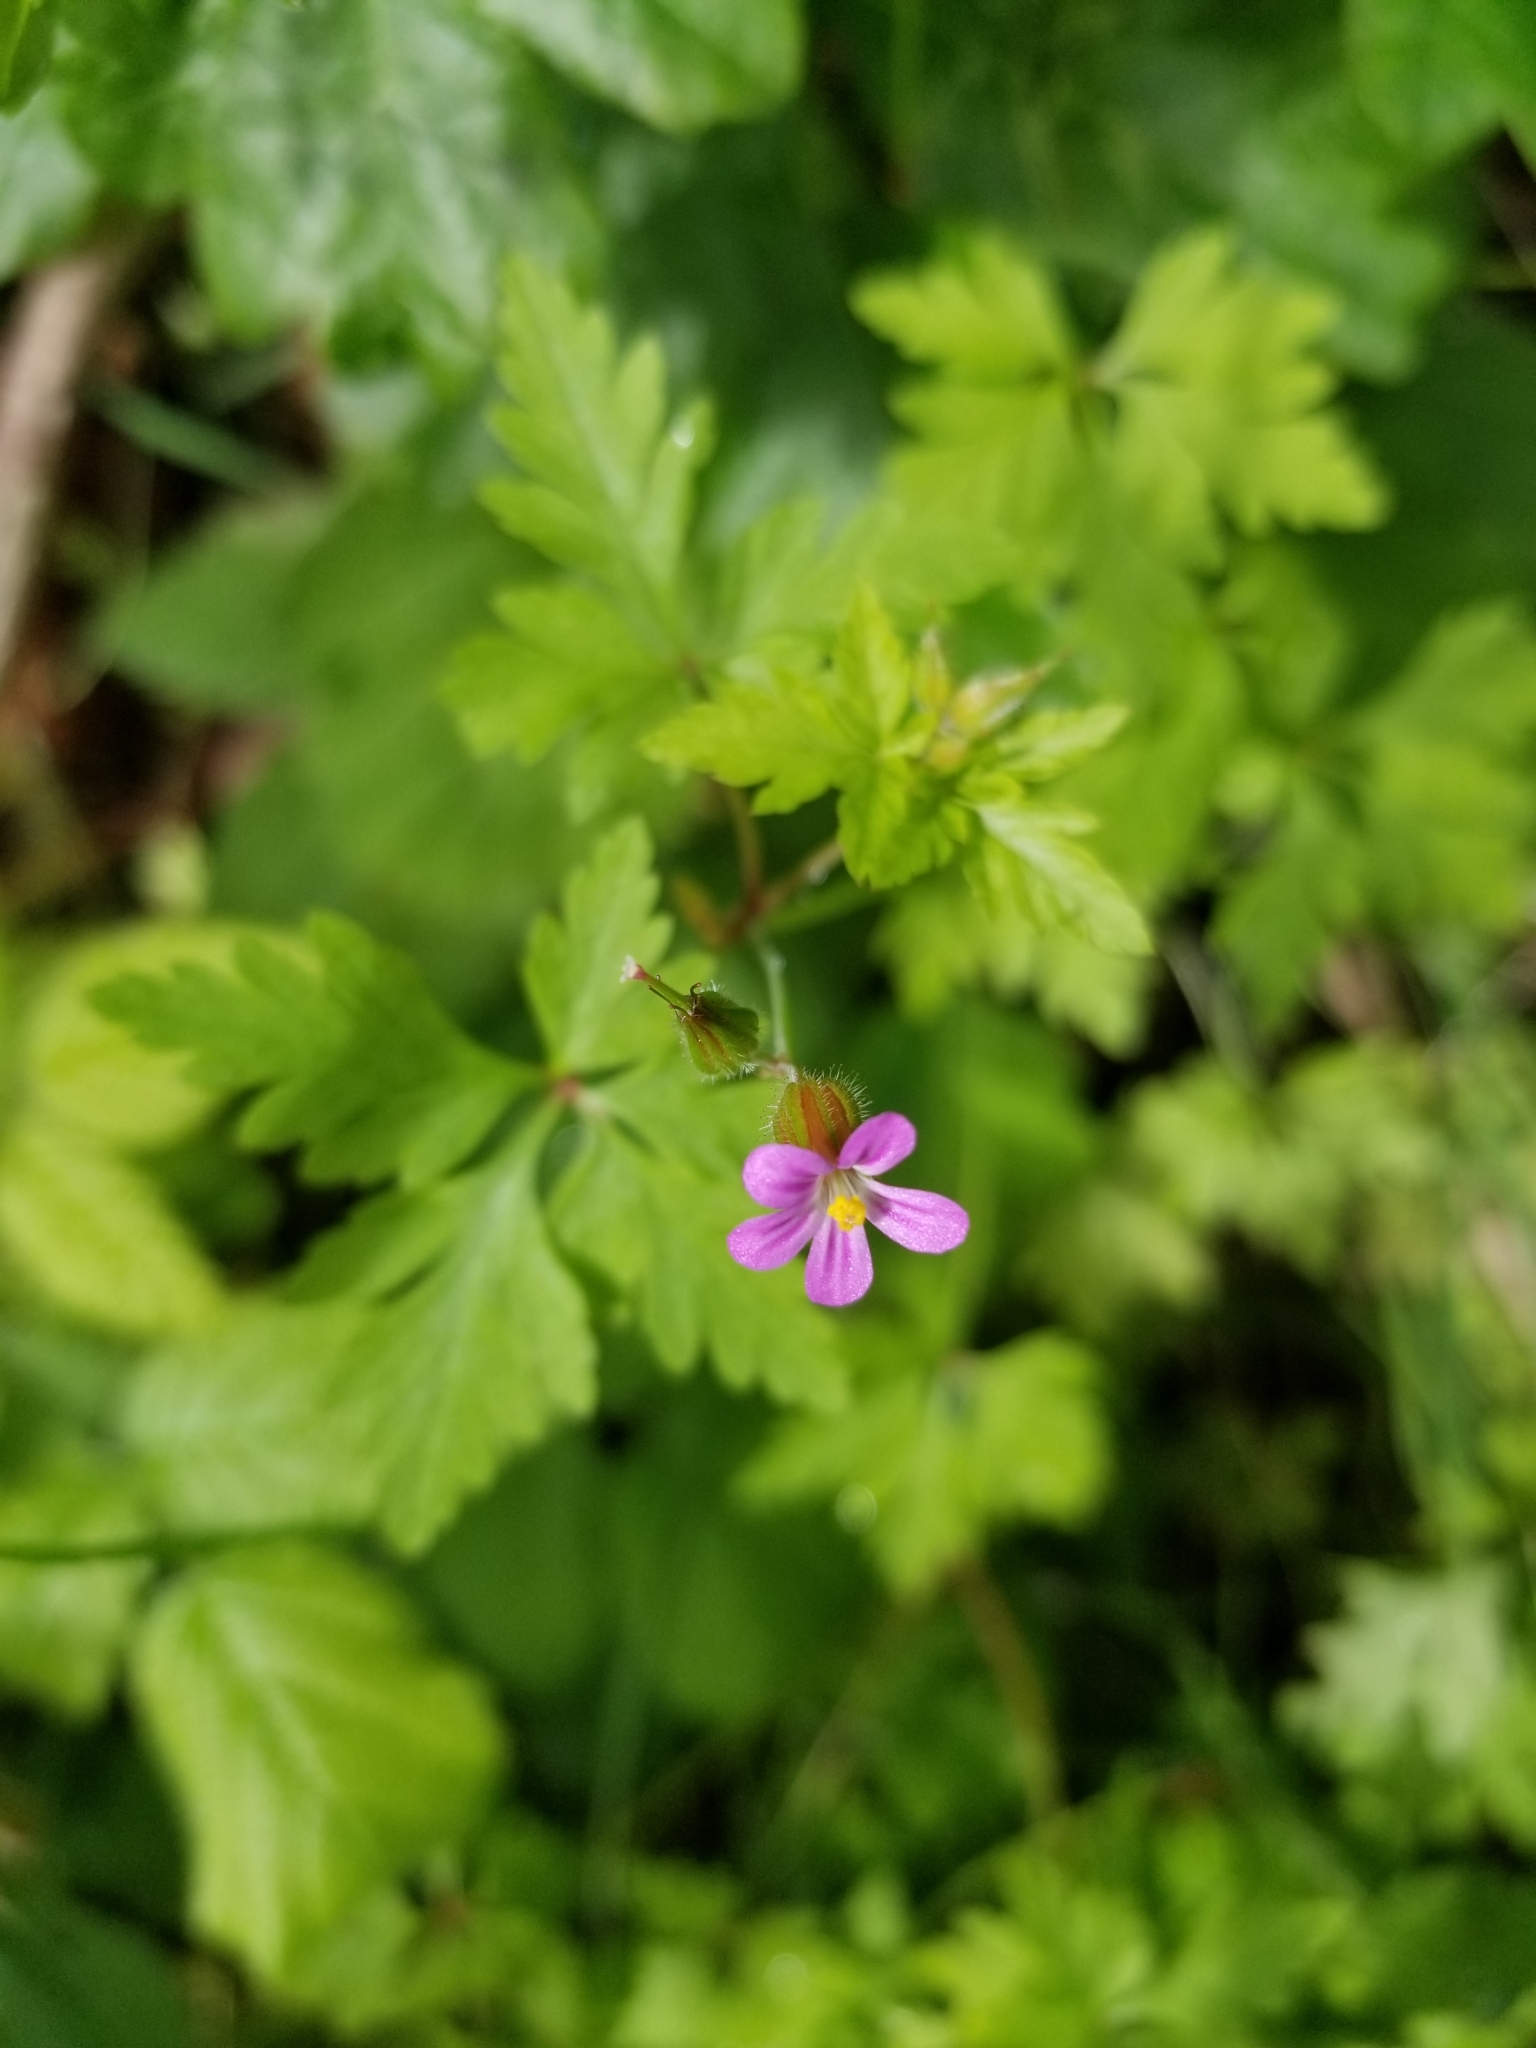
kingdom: Plantae
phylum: Tracheophyta
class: Magnoliopsida
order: Geraniales
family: Geraniaceae
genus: Geranium
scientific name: Geranium purpureum
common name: Little-robin
